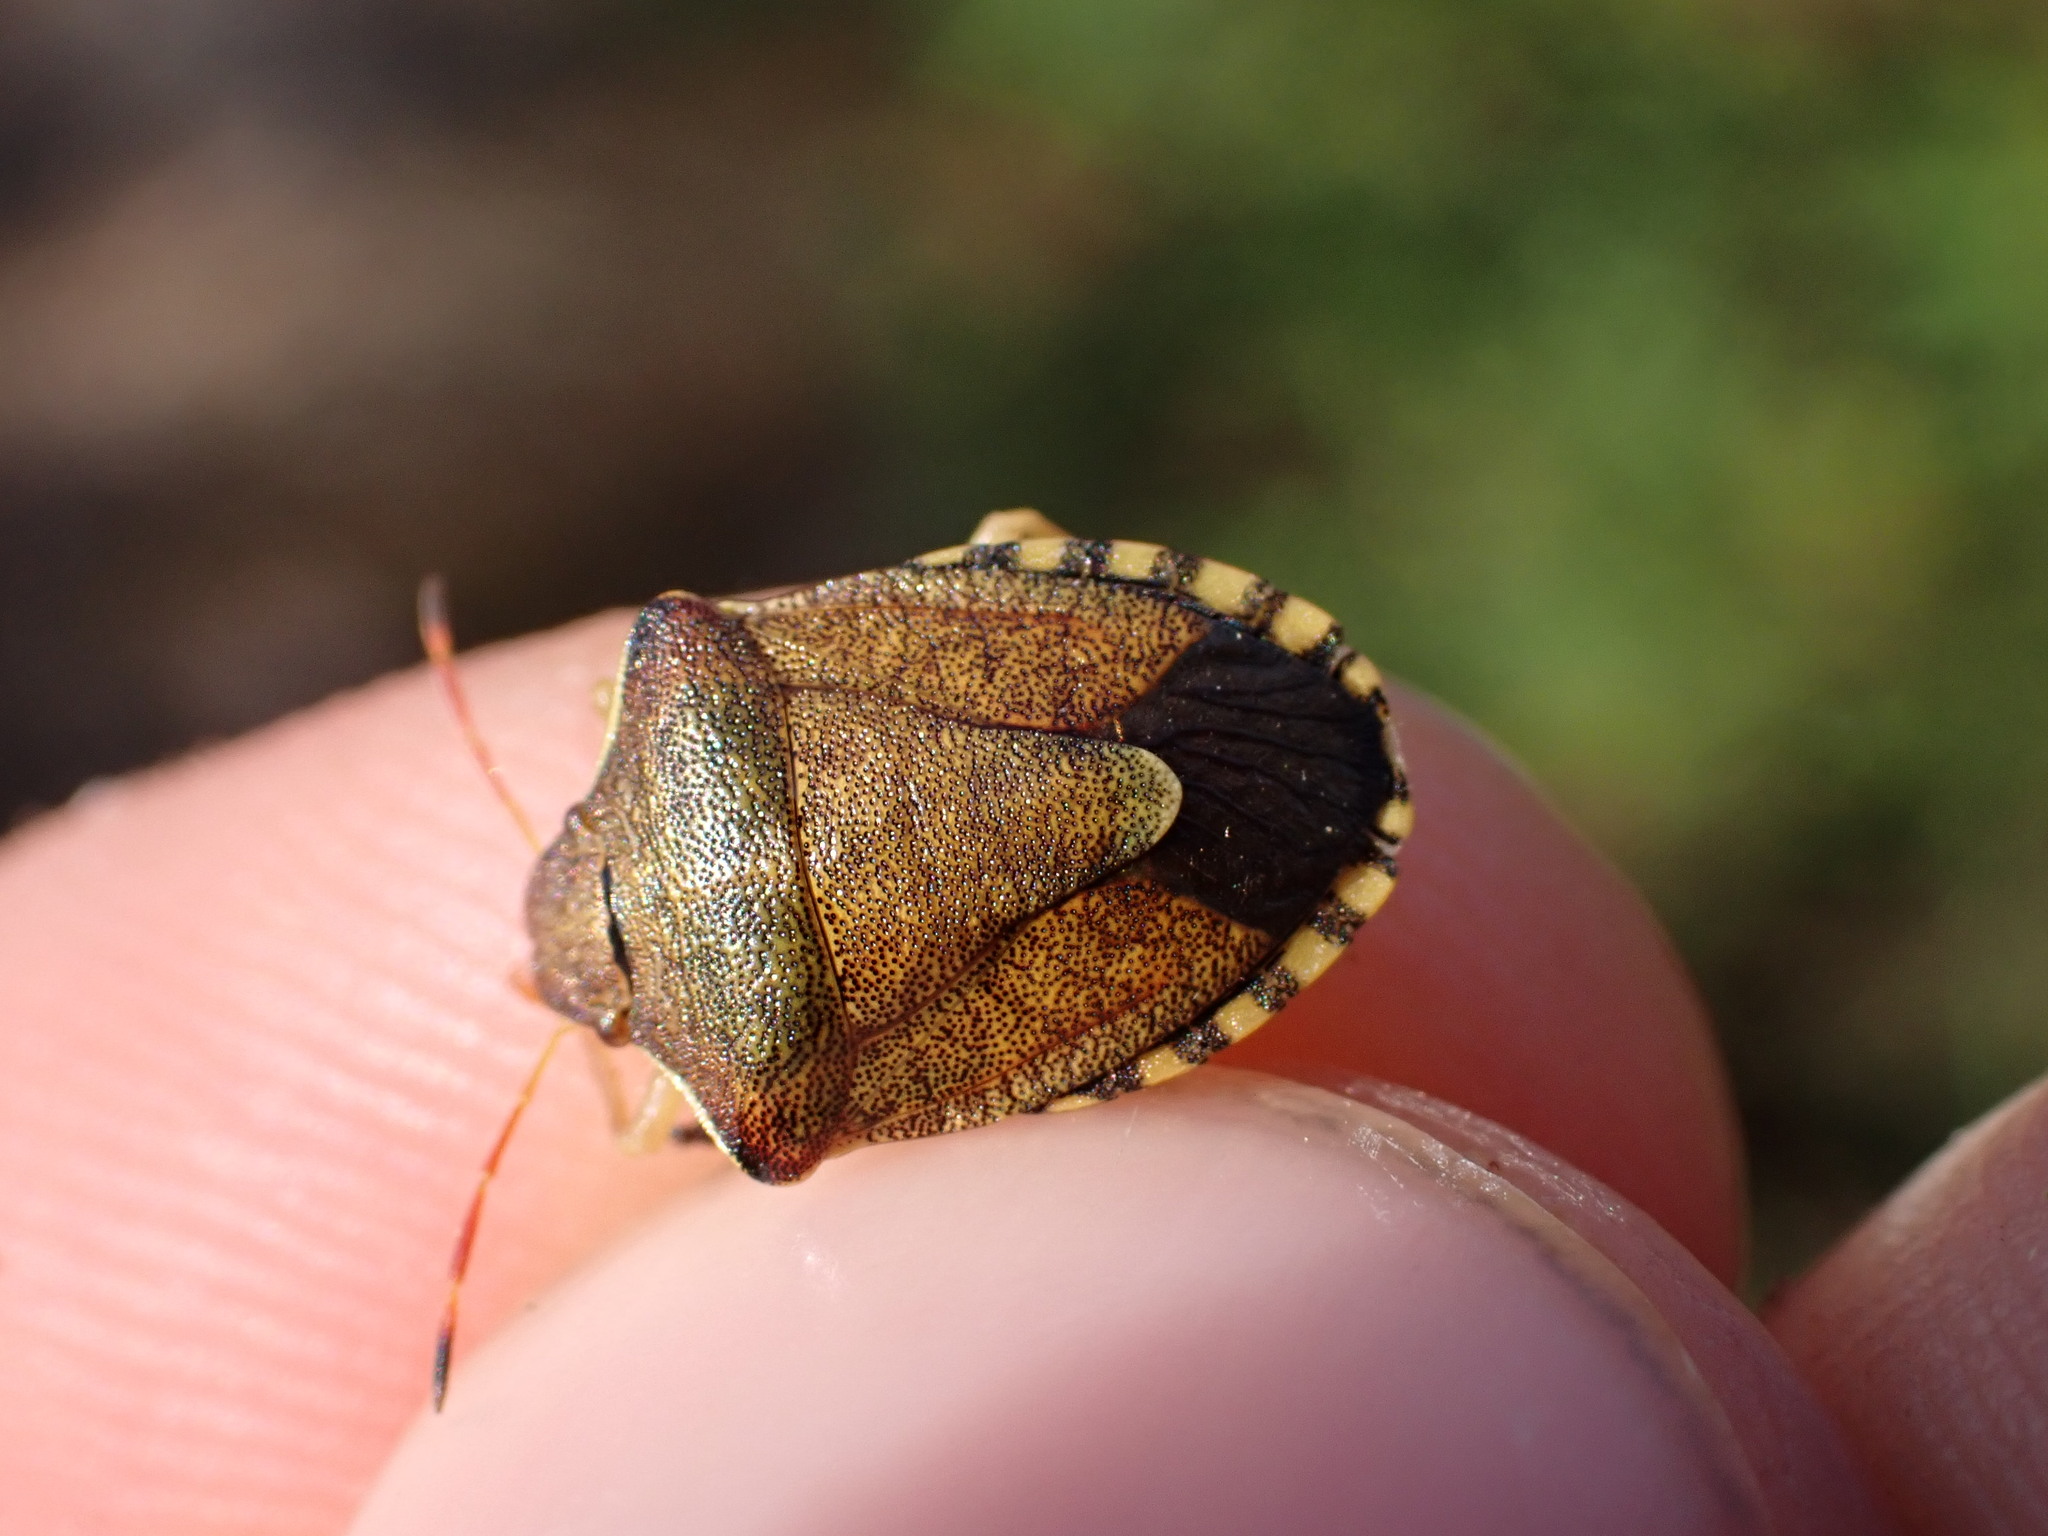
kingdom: Animalia
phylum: Arthropoda
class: Insecta
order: Hemiptera
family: Pentatomidae
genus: Holcostethus
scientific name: Holcostethus strictus
